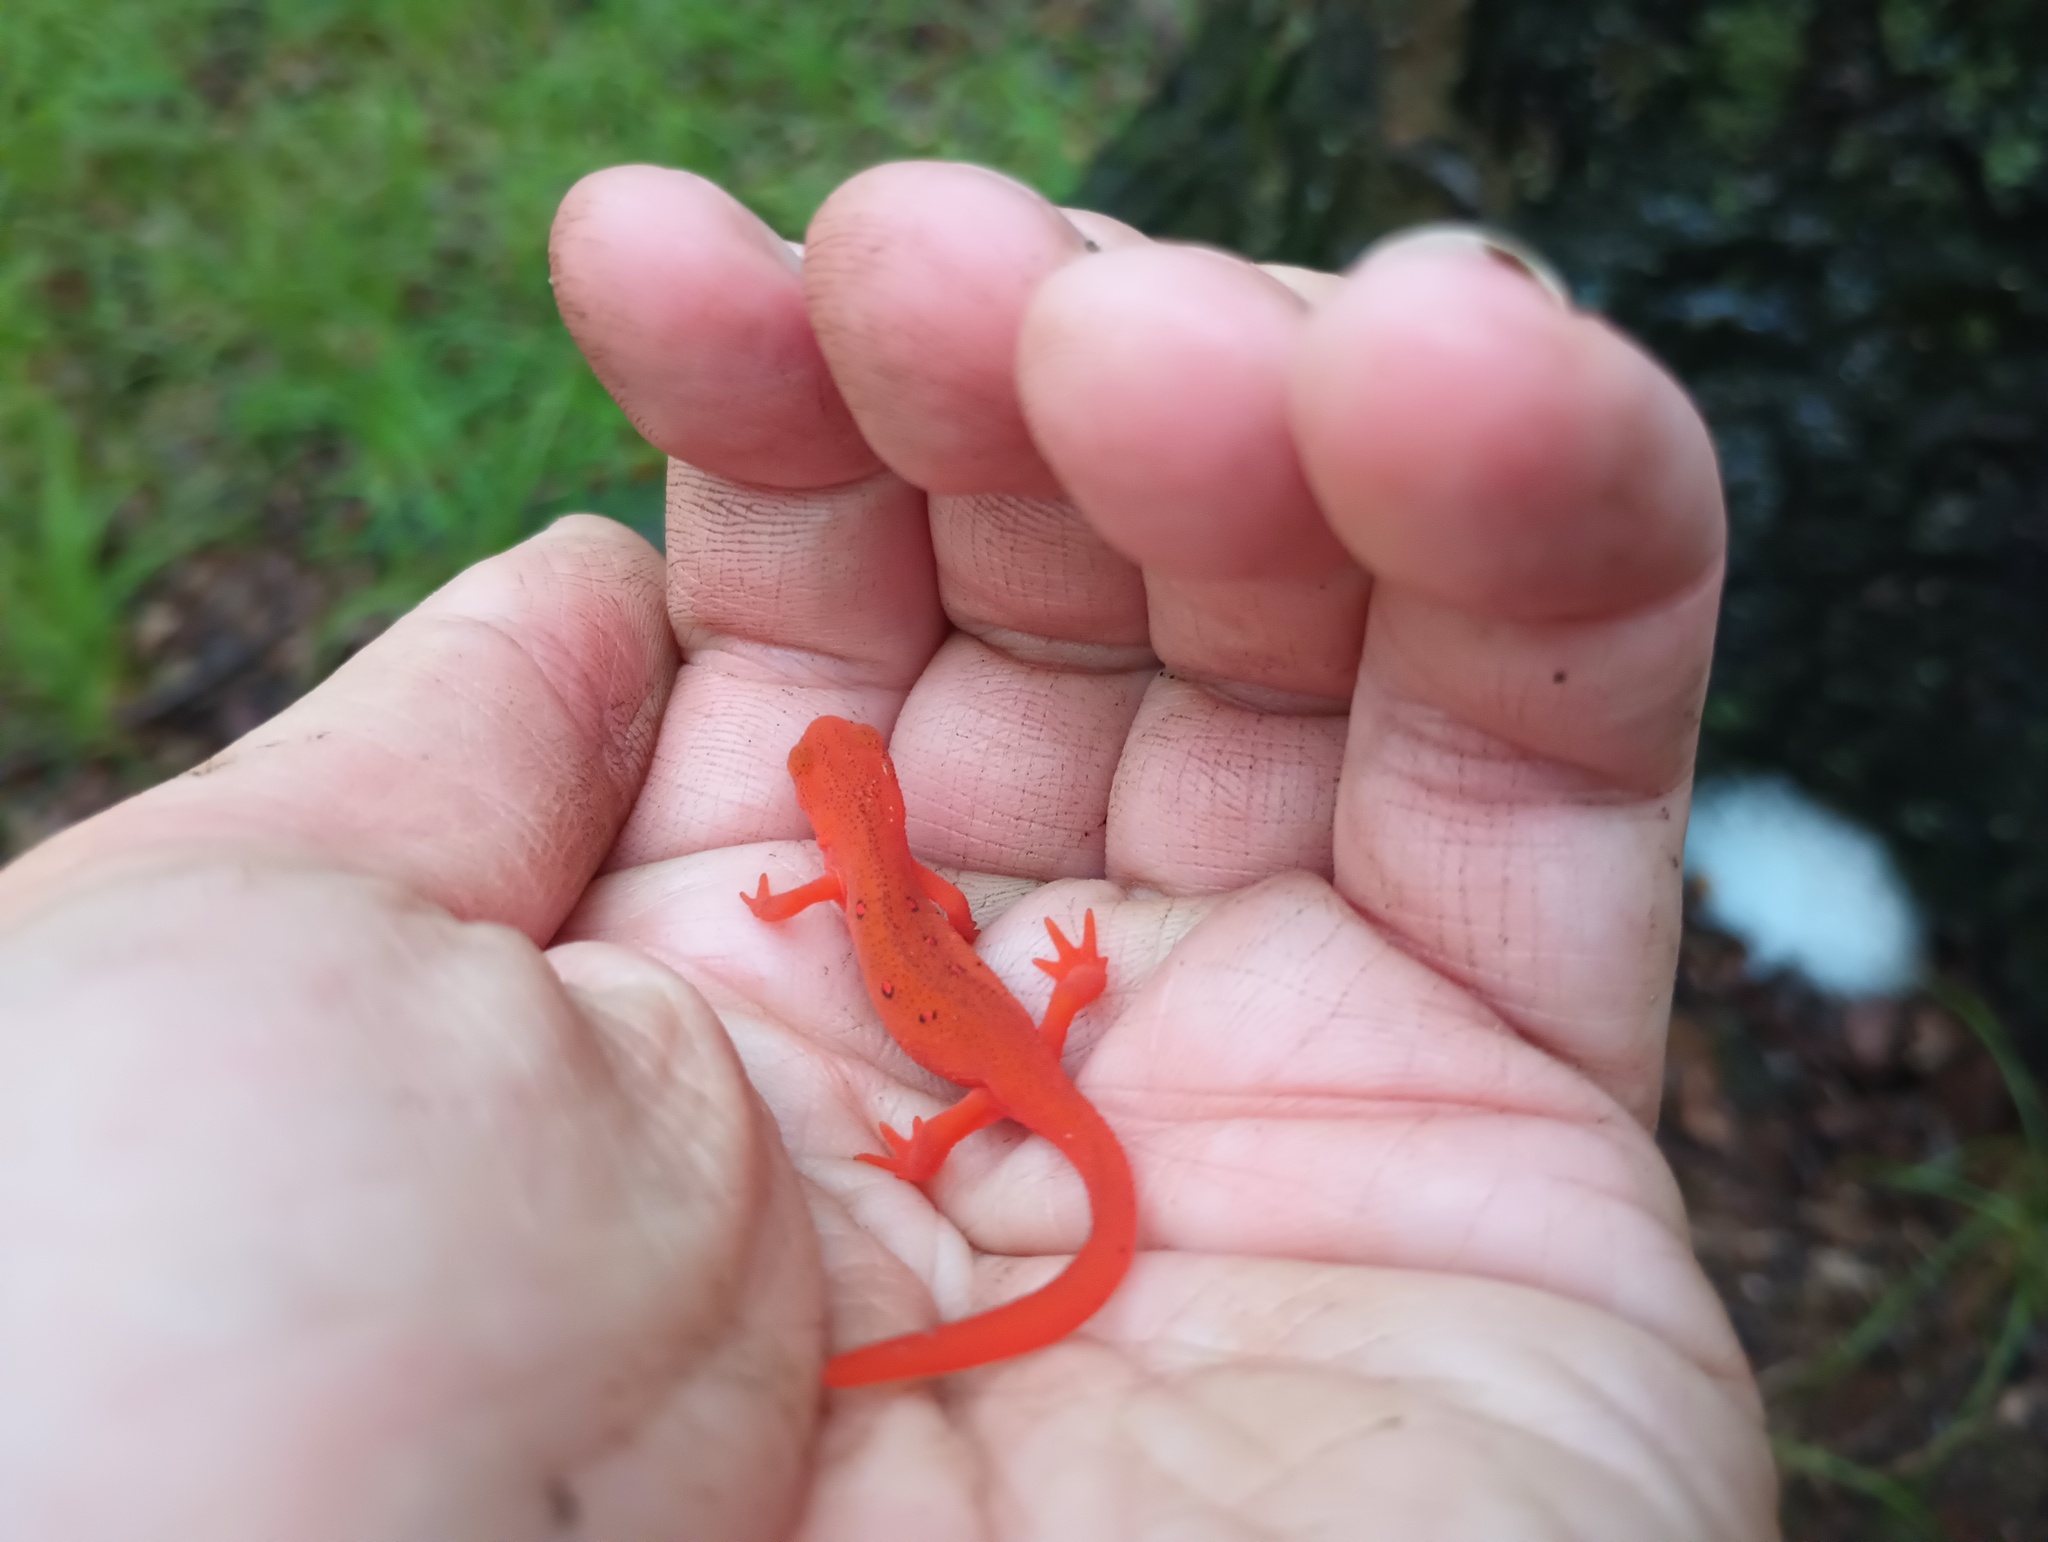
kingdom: Animalia
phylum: Chordata
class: Amphibia
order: Caudata
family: Salamandridae
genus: Notophthalmus
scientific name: Notophthalmus viridescens
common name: Eastern newt
